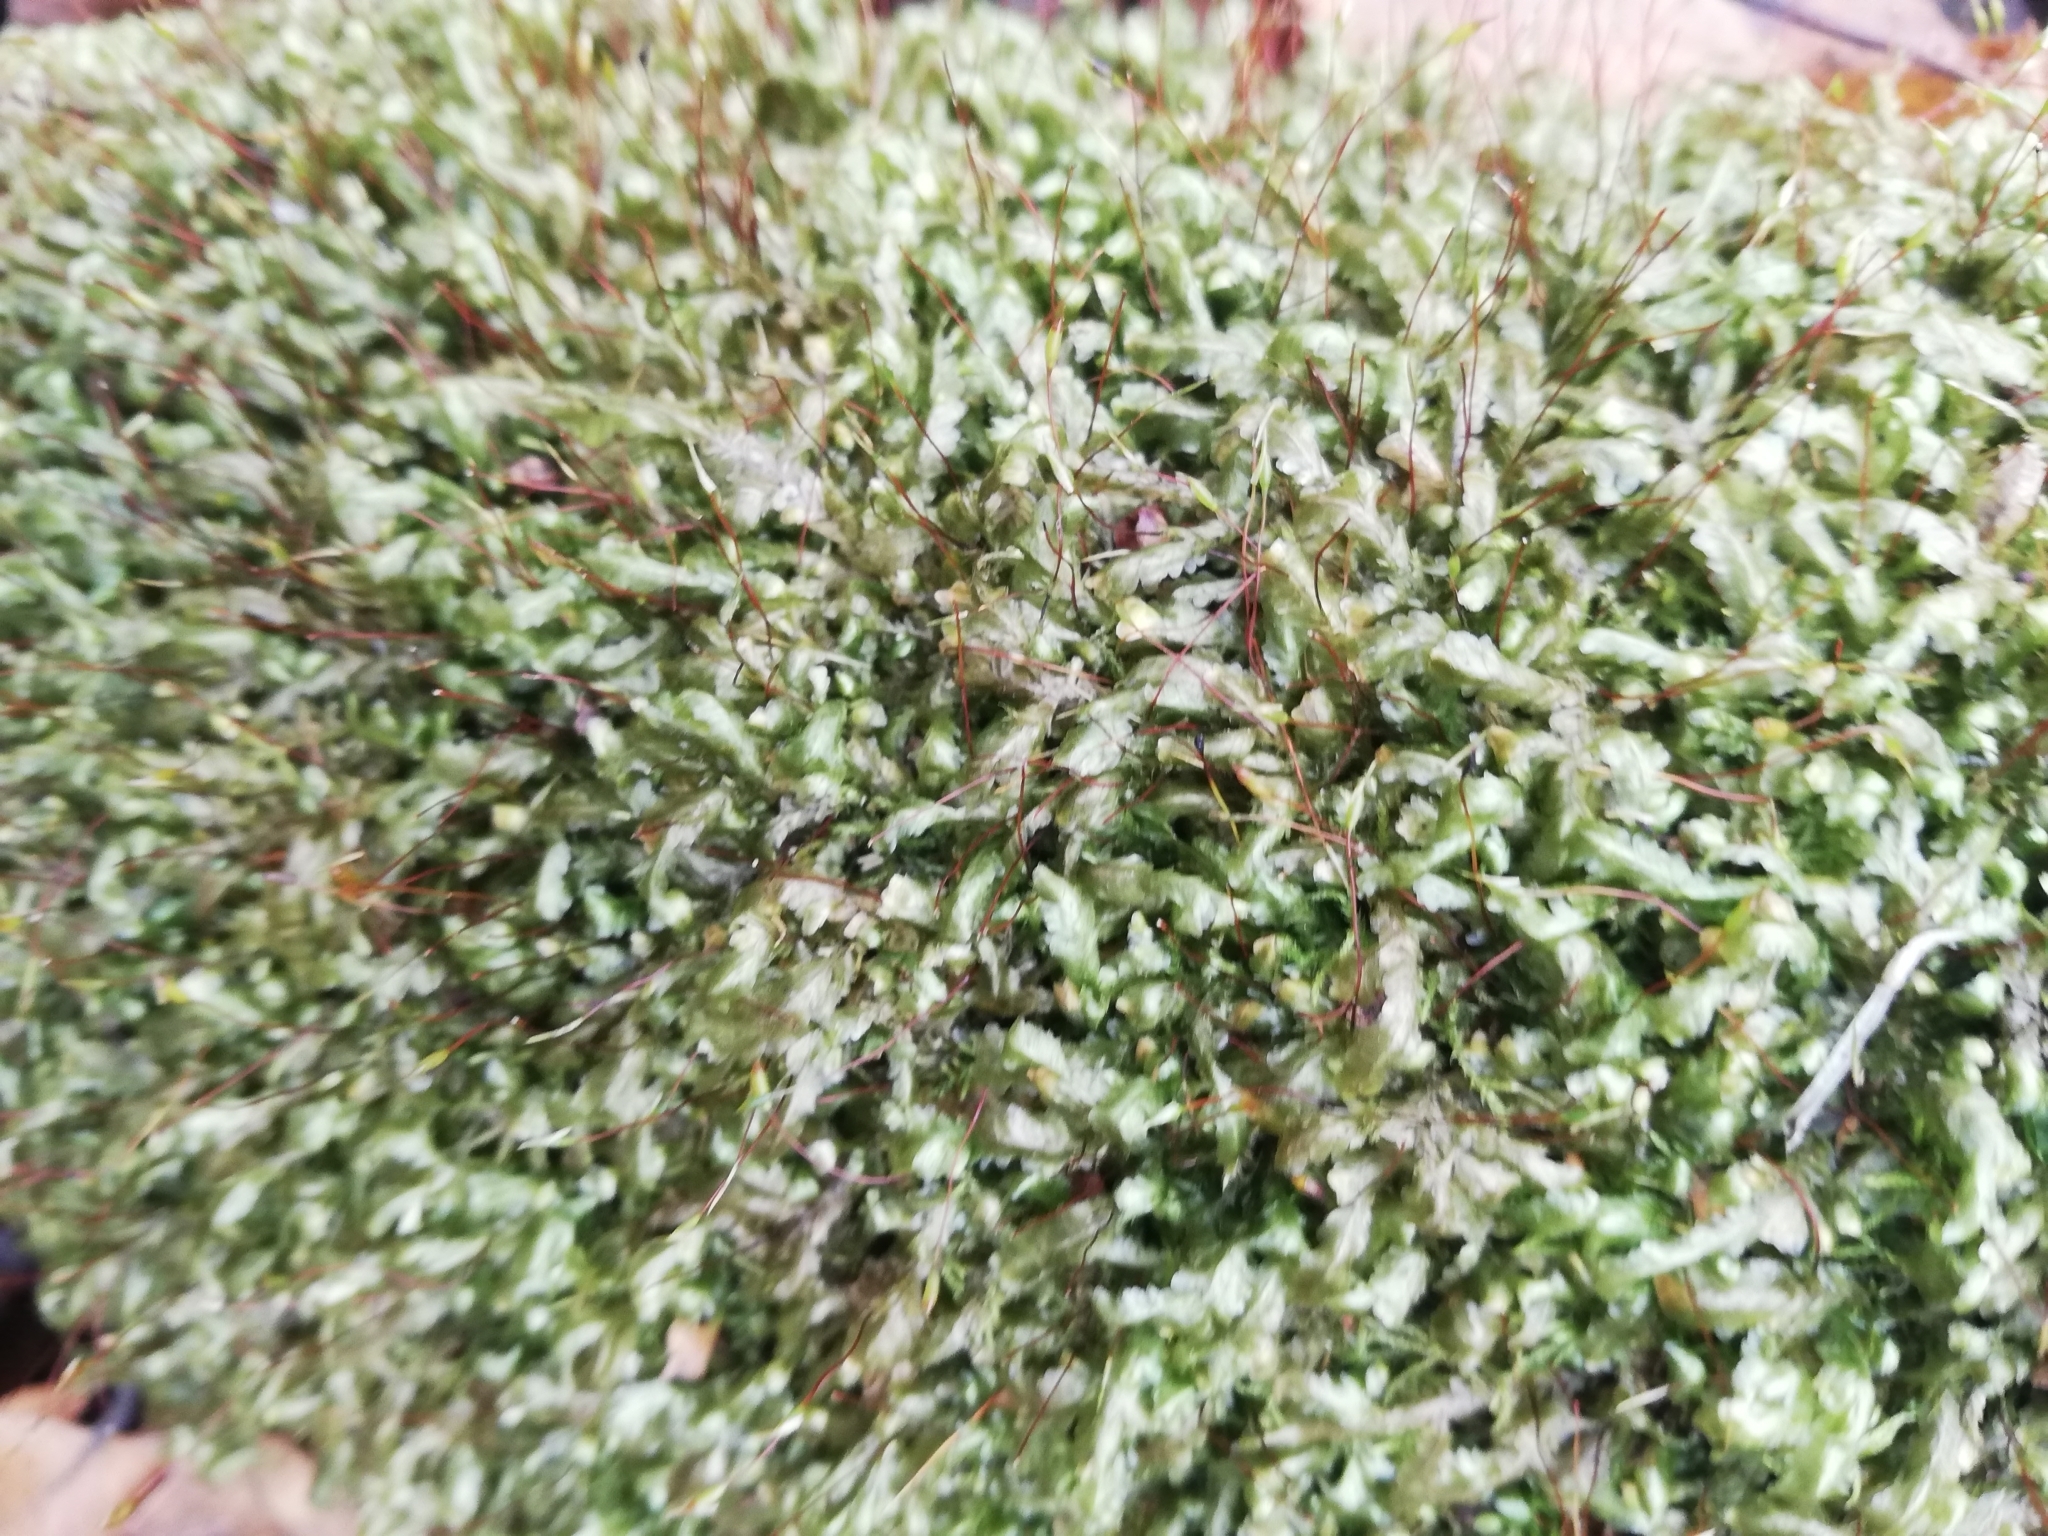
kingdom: Plantae
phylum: Bryophyta
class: Bryopsida
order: Hypnales
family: Neckeraceae
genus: Homalia
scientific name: Homalia trichomanoides
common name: Lime homalia moss
